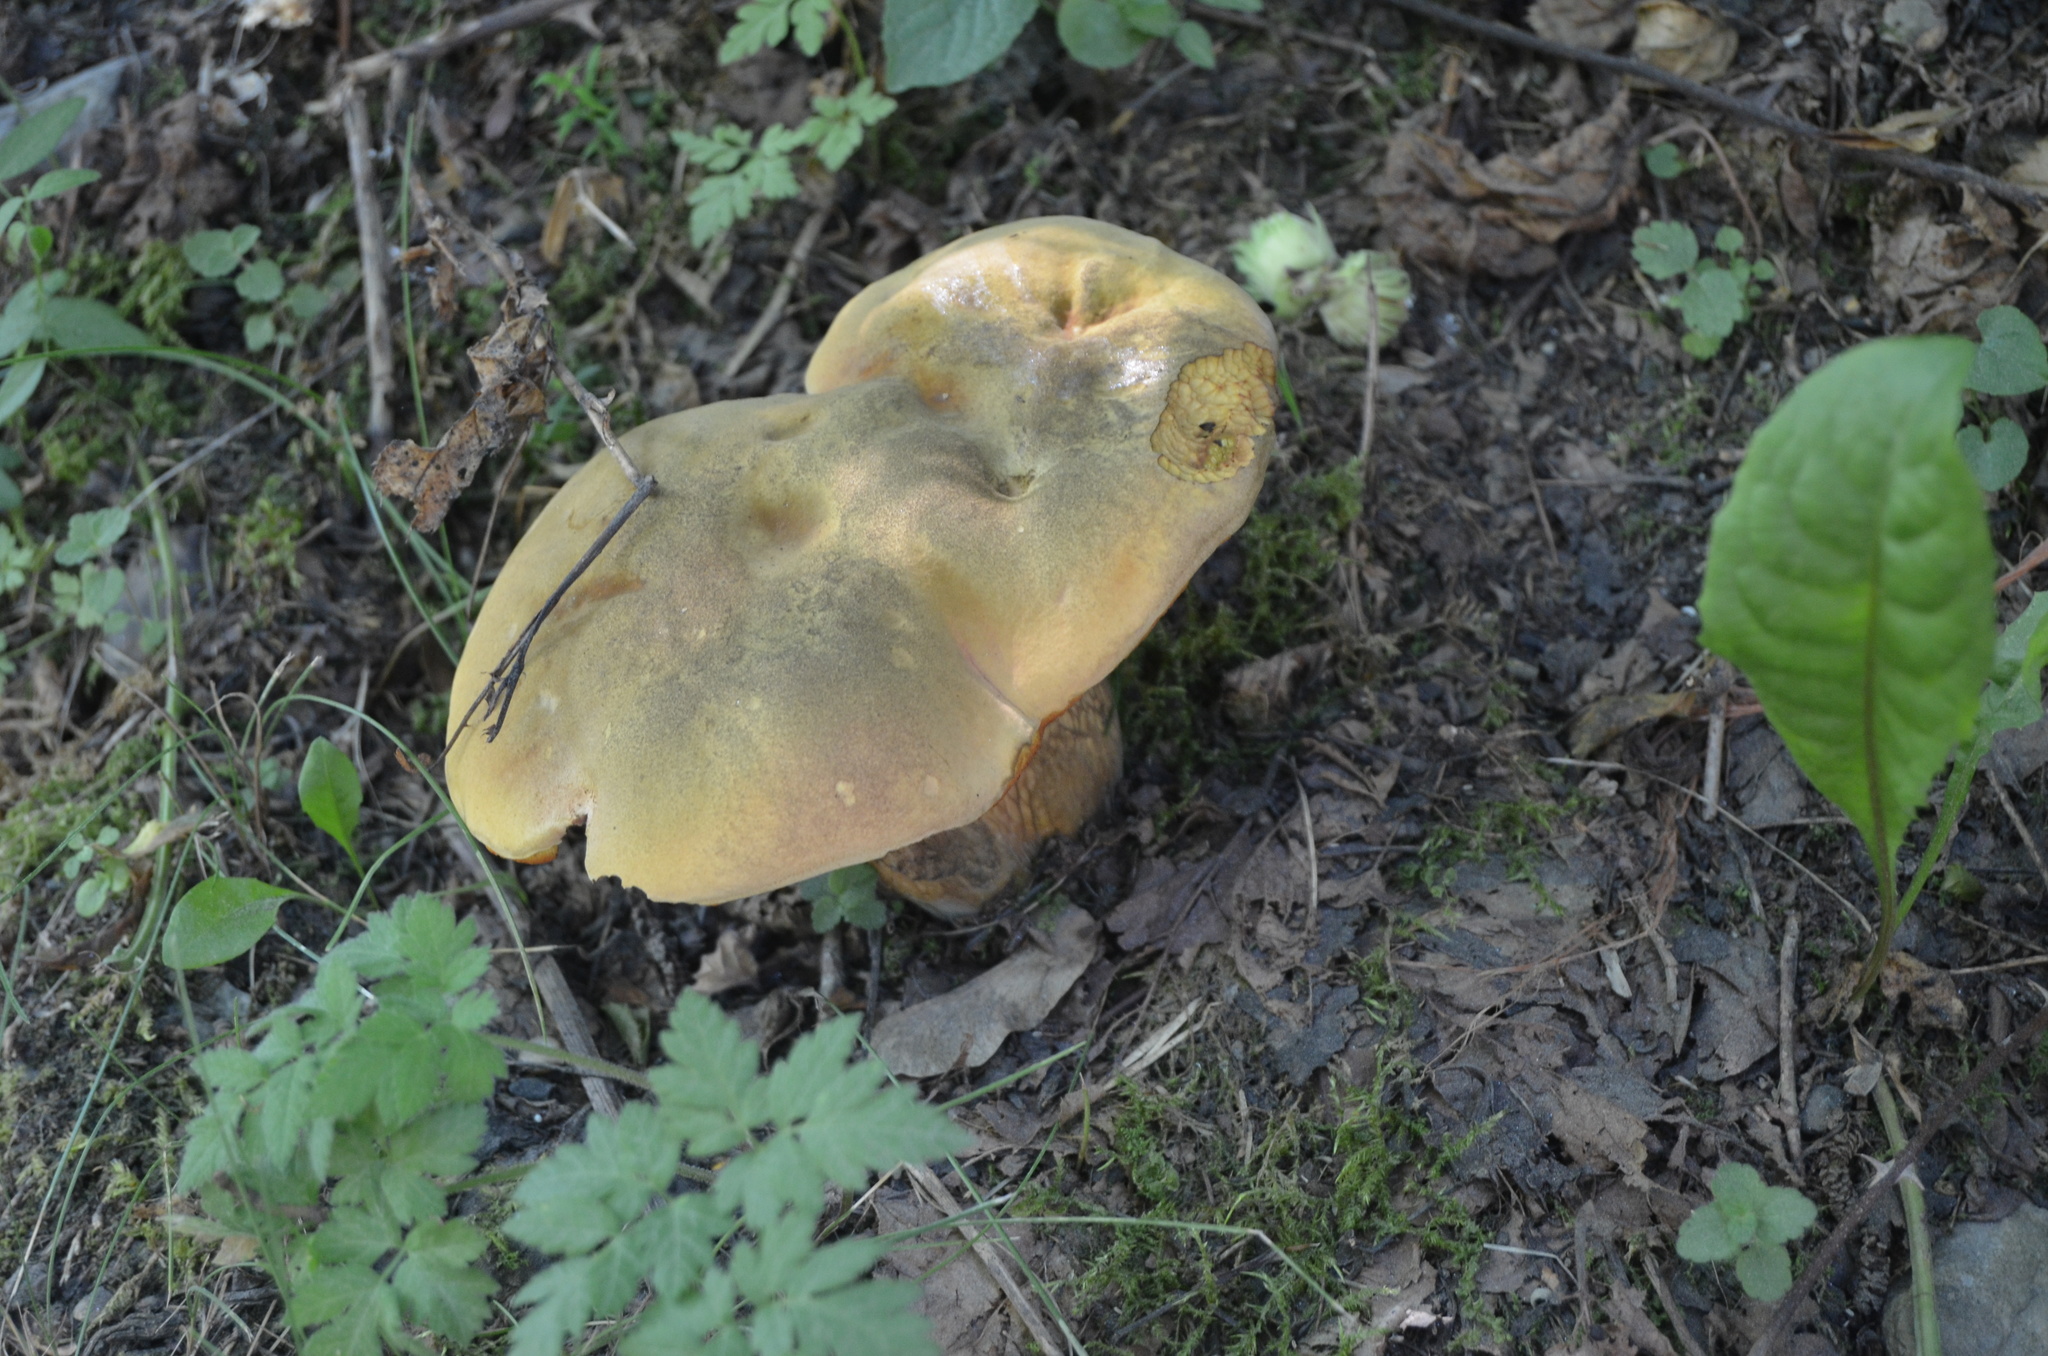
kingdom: Fungi
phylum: Basidiomycota
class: Agaricomycetes
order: Boletales
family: Boletaceae
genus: Suillellus
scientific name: Suillellus luridus
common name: Lurid bolete
